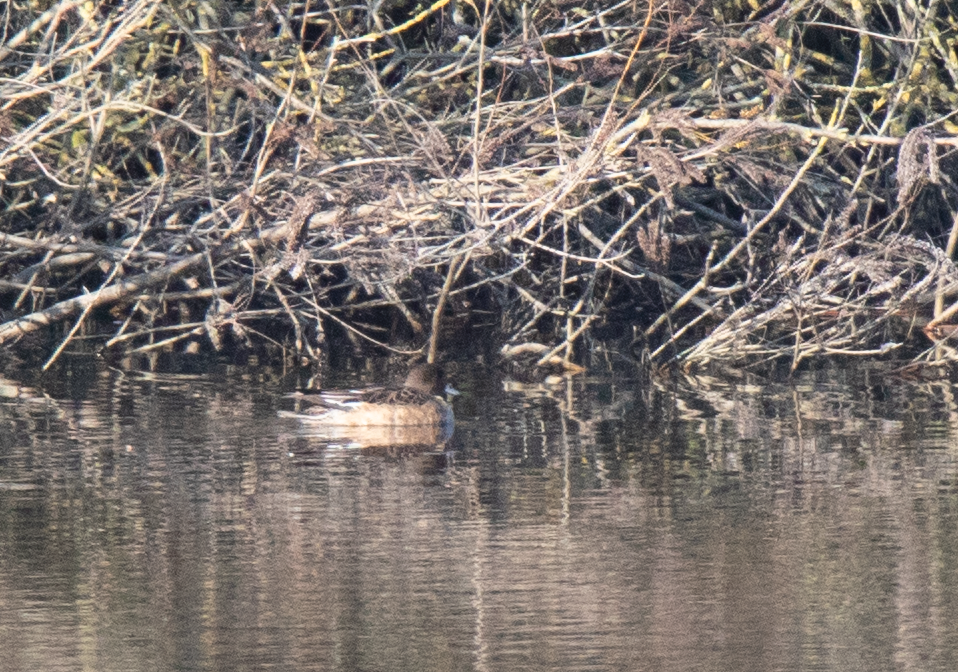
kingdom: Animalia
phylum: Chordata
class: Aves
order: Anseriformes
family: Anatidae
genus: Mareca
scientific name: Mareca penelope
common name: Eurasian wigeon
